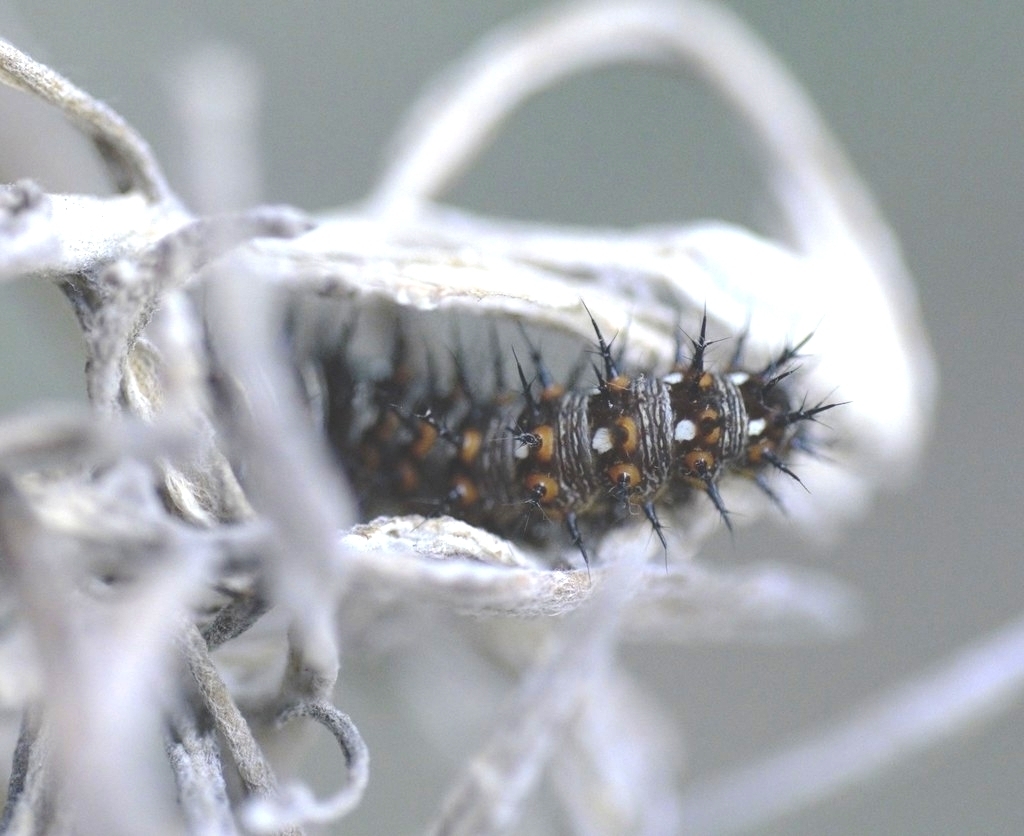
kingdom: Animalia
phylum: Arthropoda
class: Insecta
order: Lepidoptera
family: Nymphalidae
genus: Vanessa
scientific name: Vanessa virginiensis
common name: American lady
